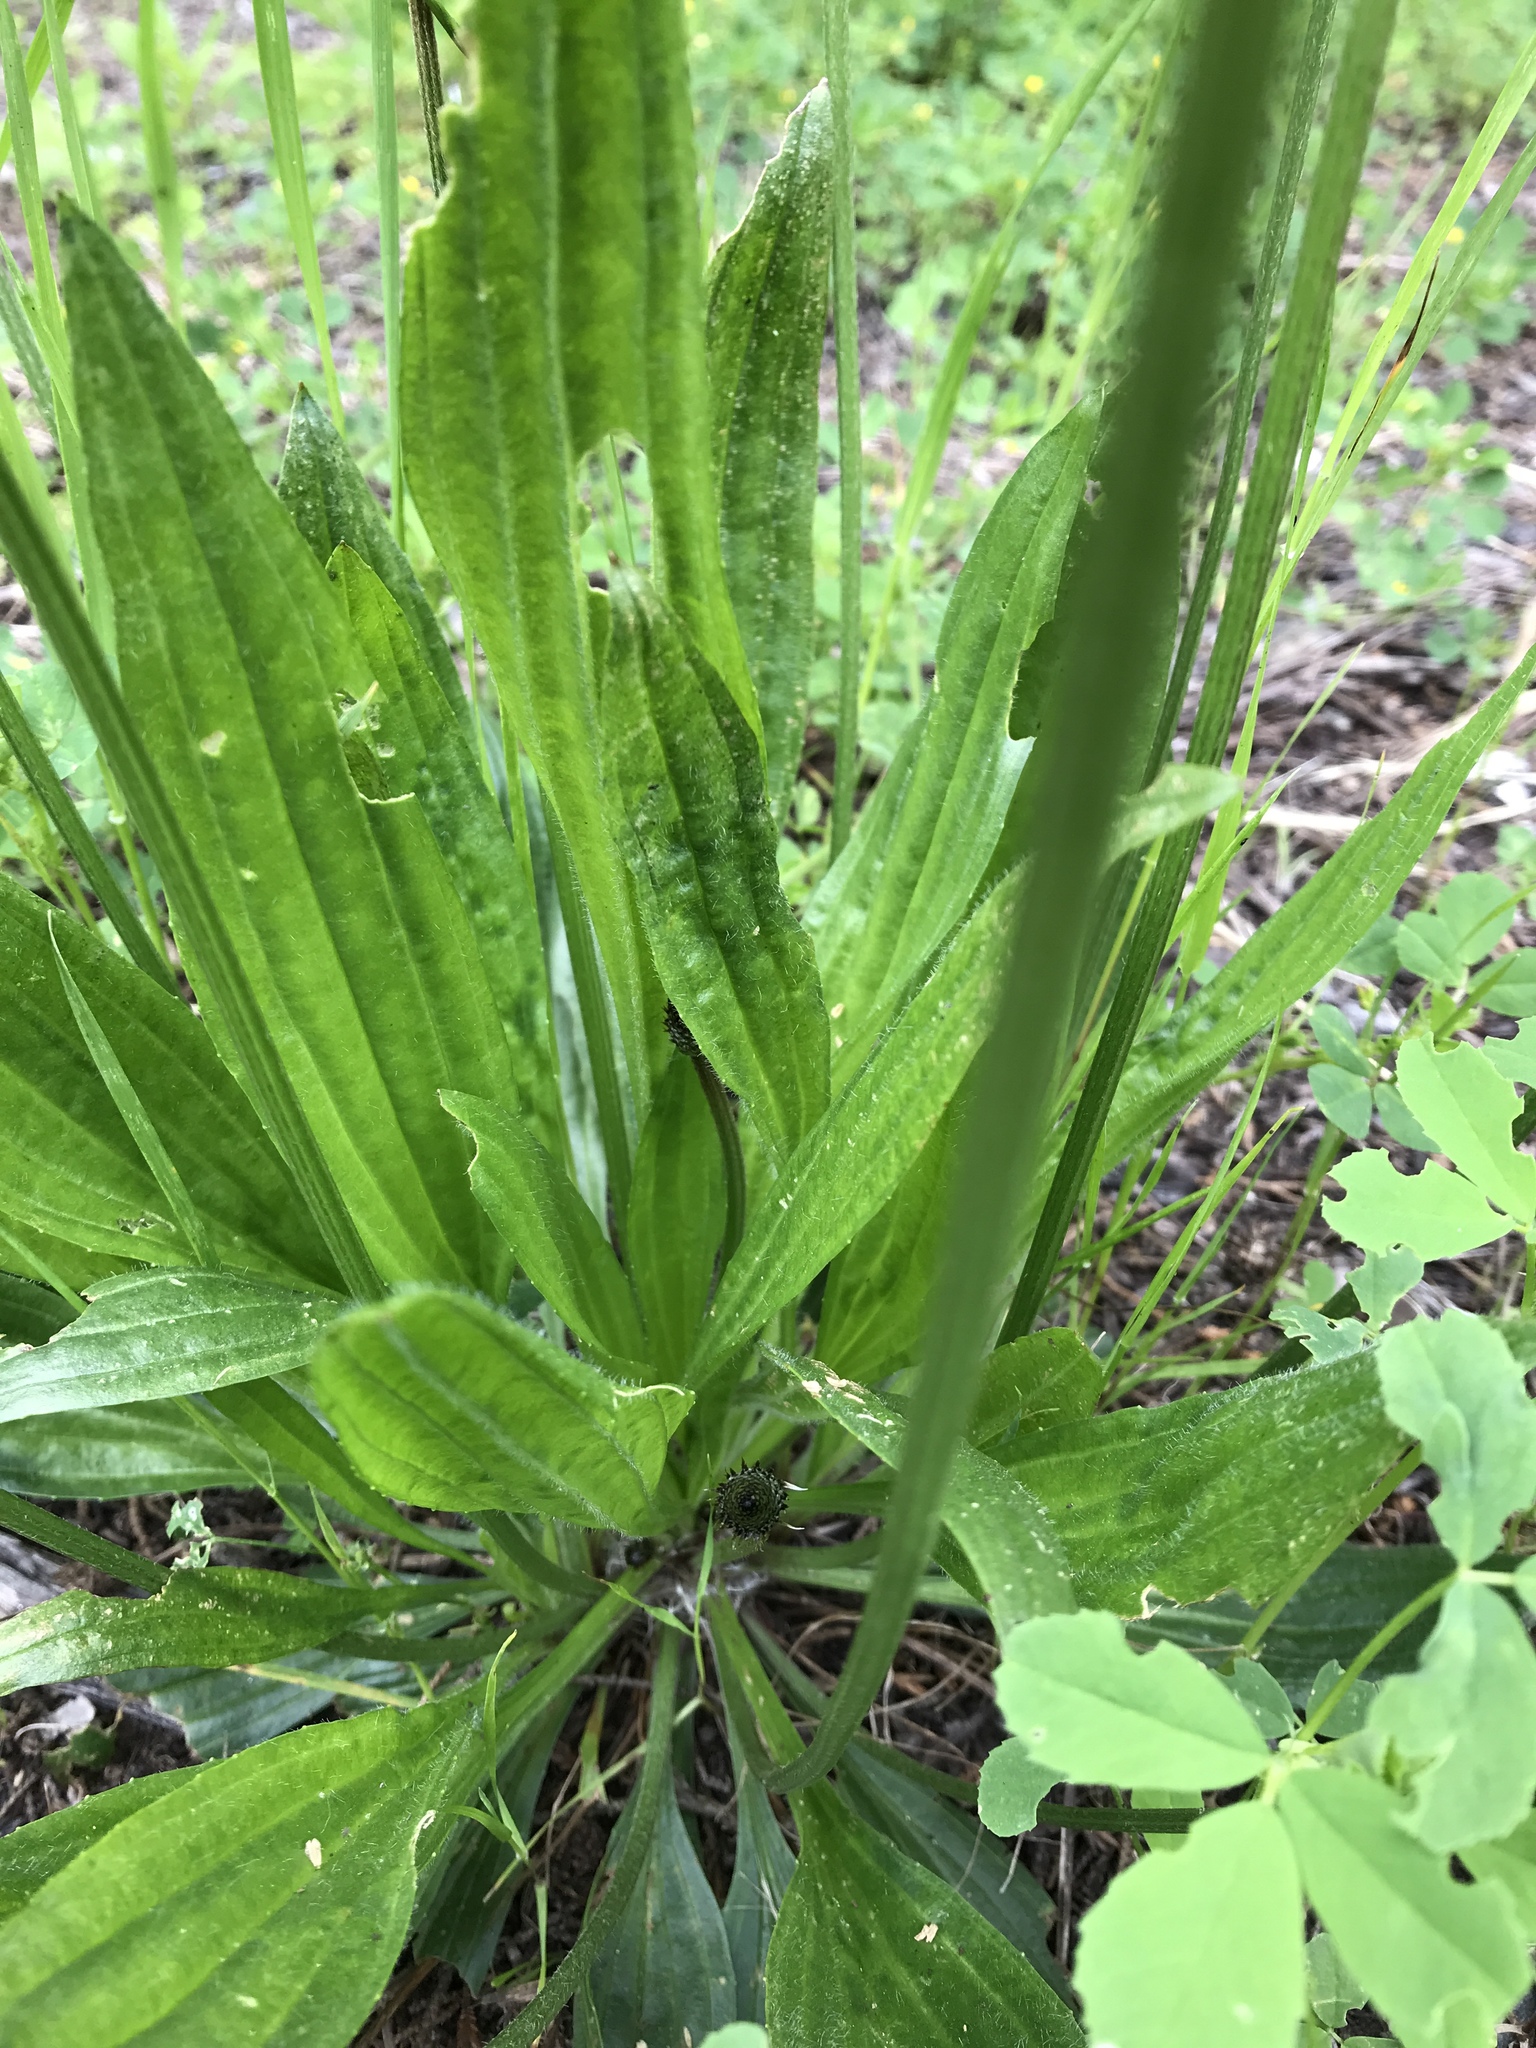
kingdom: Plantae
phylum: Tracheophyta
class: Magnoliopsida
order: Lamiales
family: Plantaginaceae
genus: Plantago
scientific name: Plantago lanceolata
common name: Ribwort plantain
